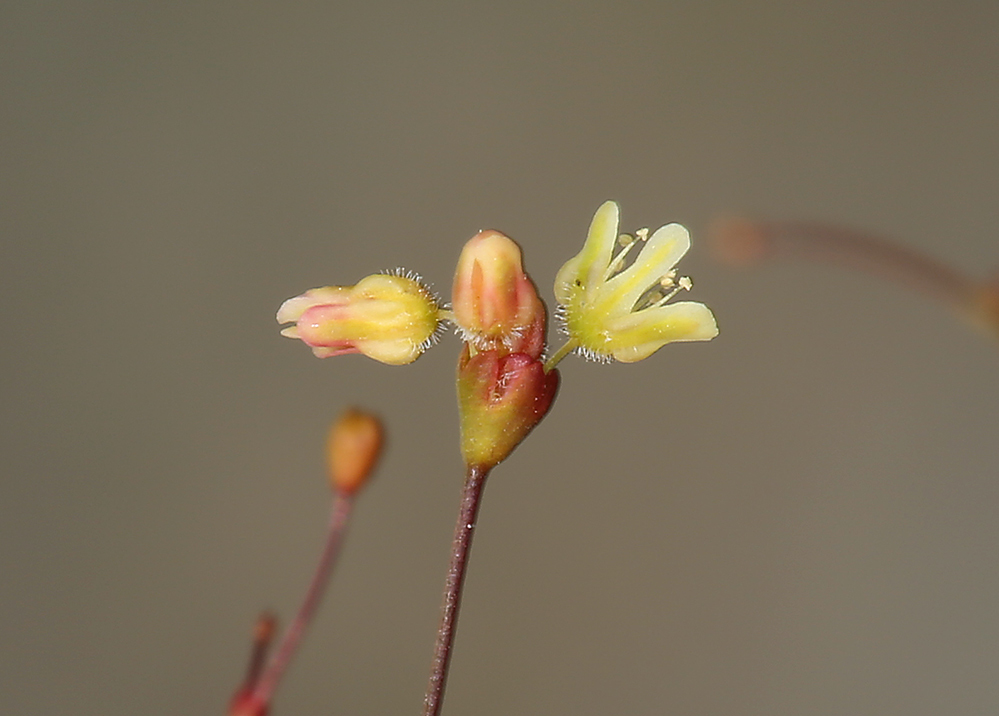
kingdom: Plantae
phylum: Tracheophyta
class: Magnoliopsida
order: Caryophyllales
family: Polygonaceae
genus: Eriogonum
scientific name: Eriogonum thomasii
